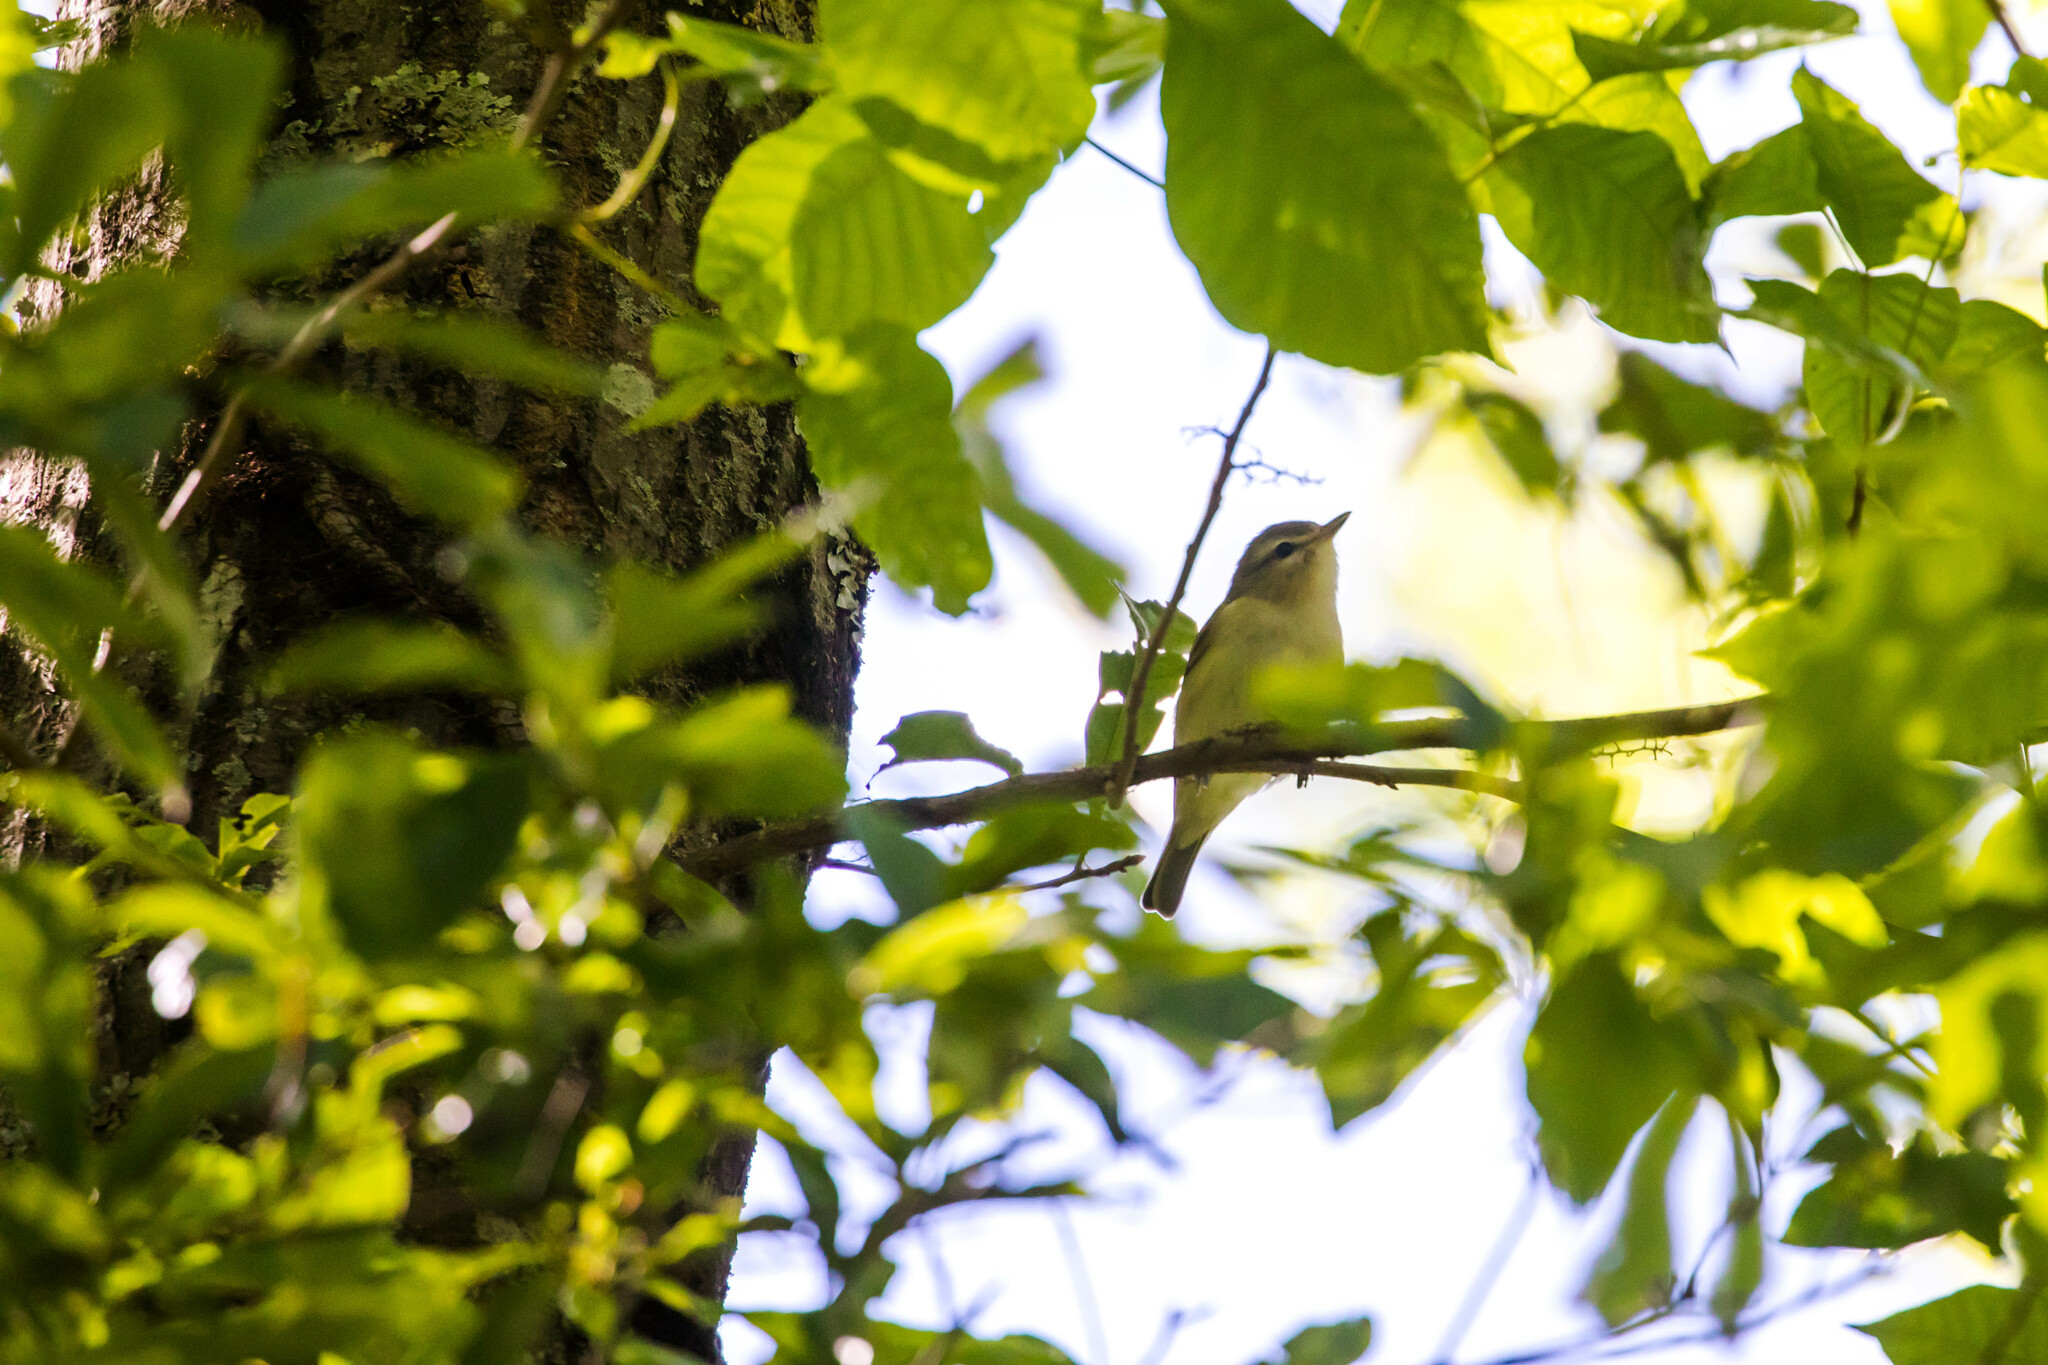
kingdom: Animalia
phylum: Chordata
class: Aves
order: Passeriformes
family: Vireonidae
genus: Vireo
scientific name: Vireo gilvus
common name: Warbling vireo
